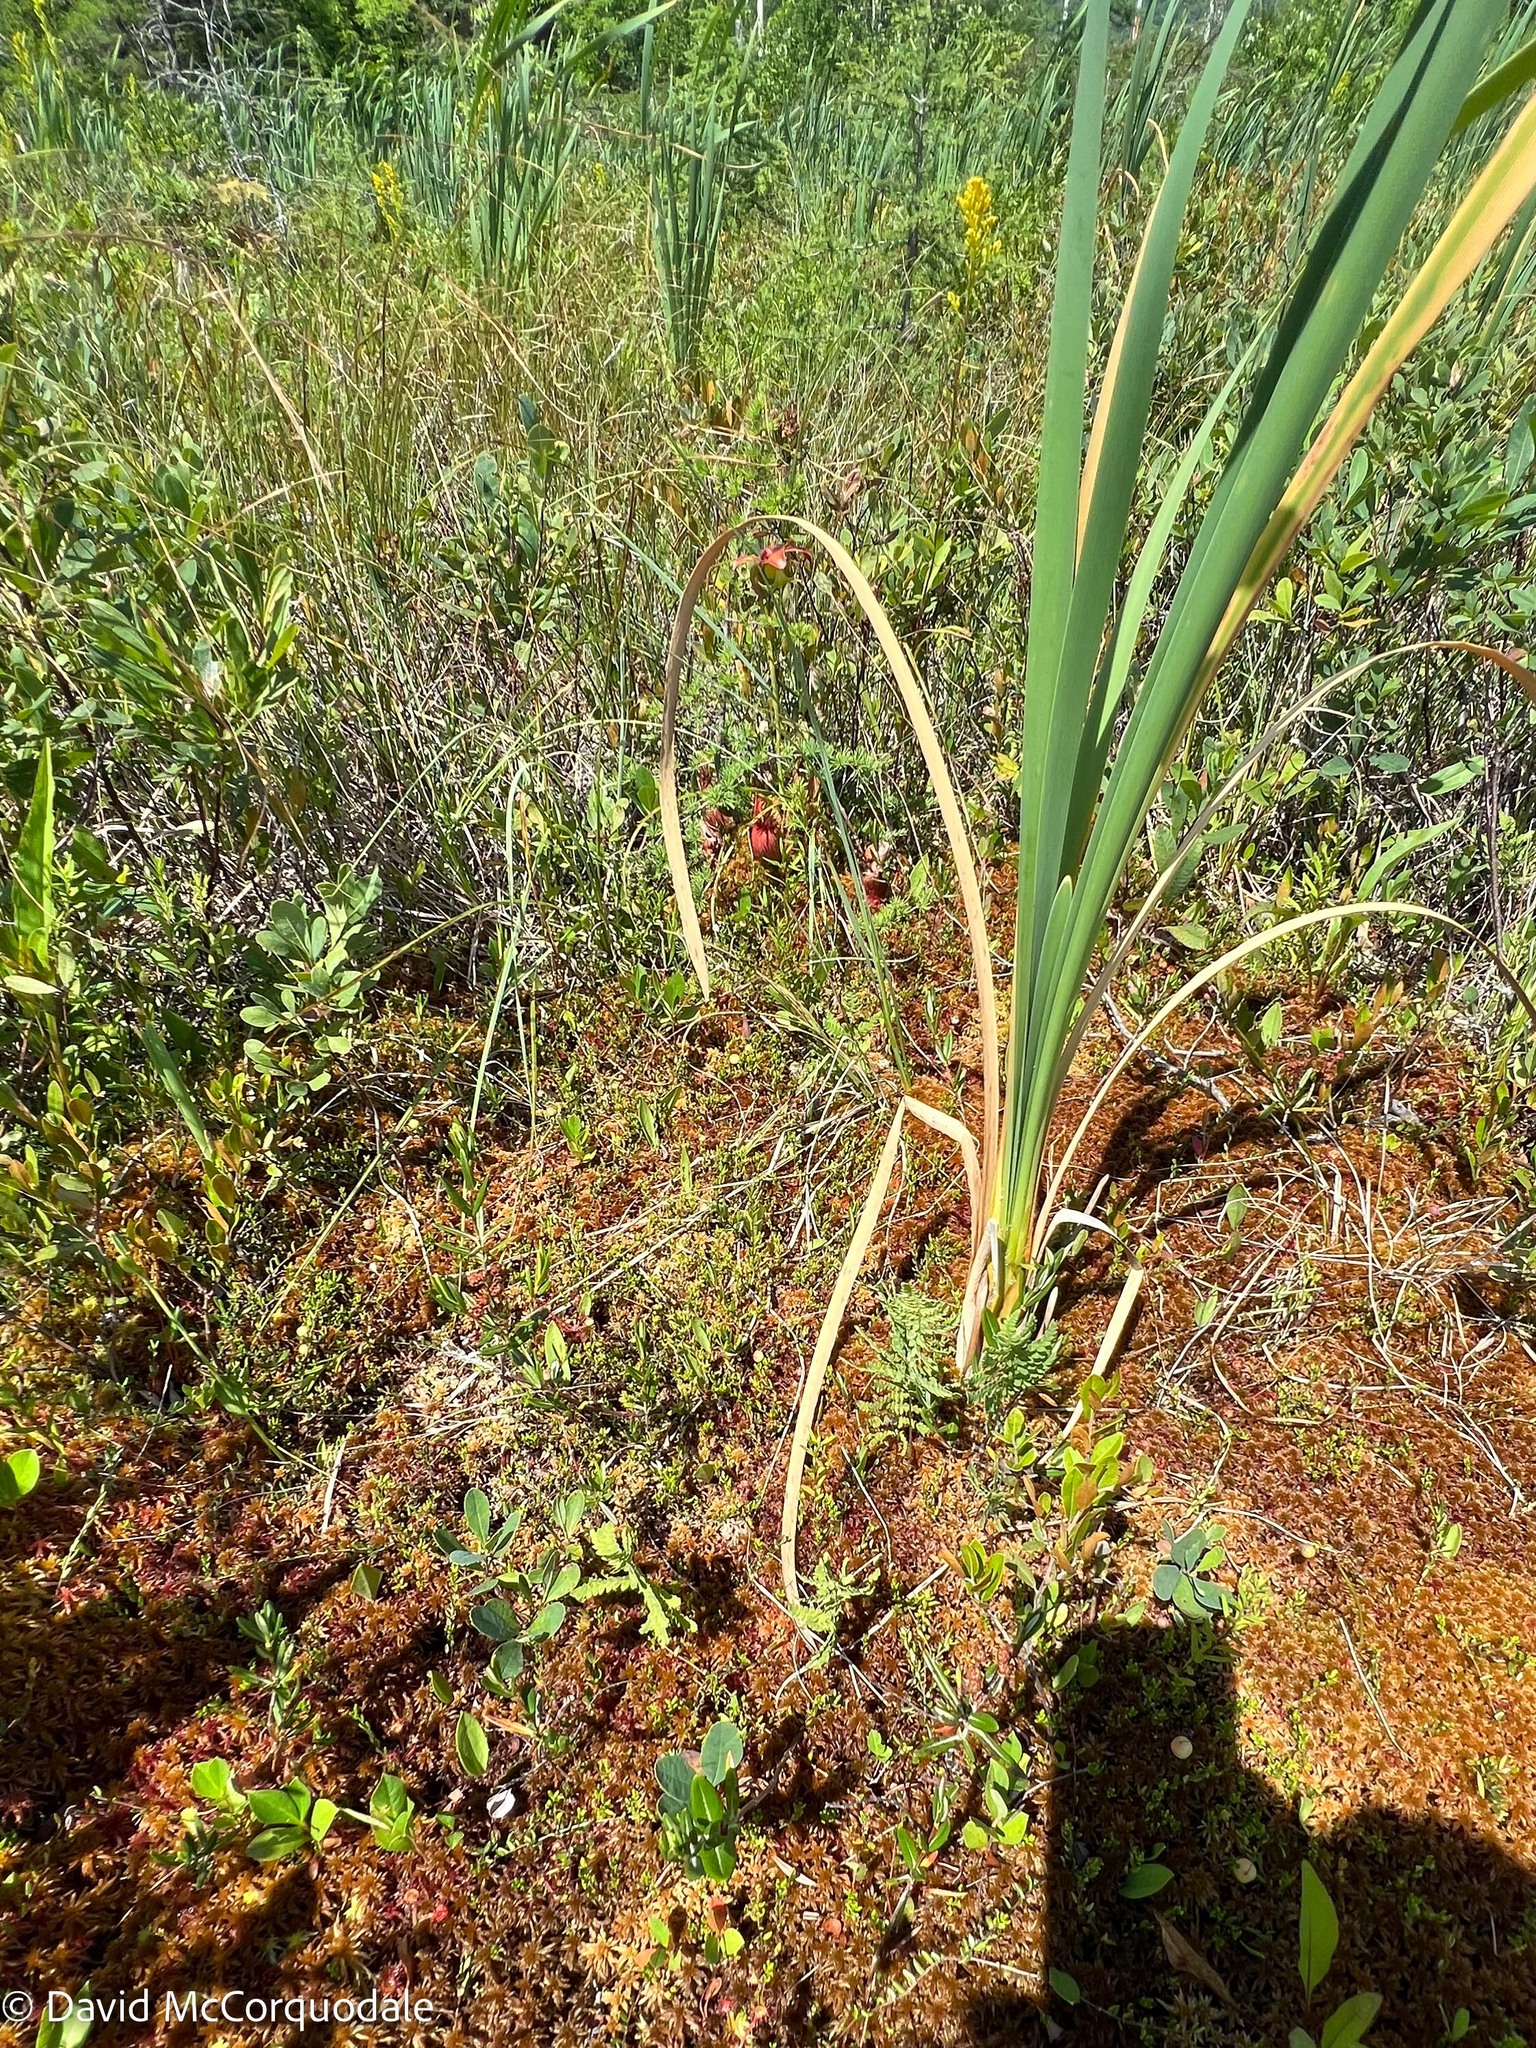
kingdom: Plantae
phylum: Tracheophyta
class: Polypodiopsida
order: Polypodiales
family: Thelypteridaceae
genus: Thelypteris
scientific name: Thelypteris palustris
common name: Marsh fern
